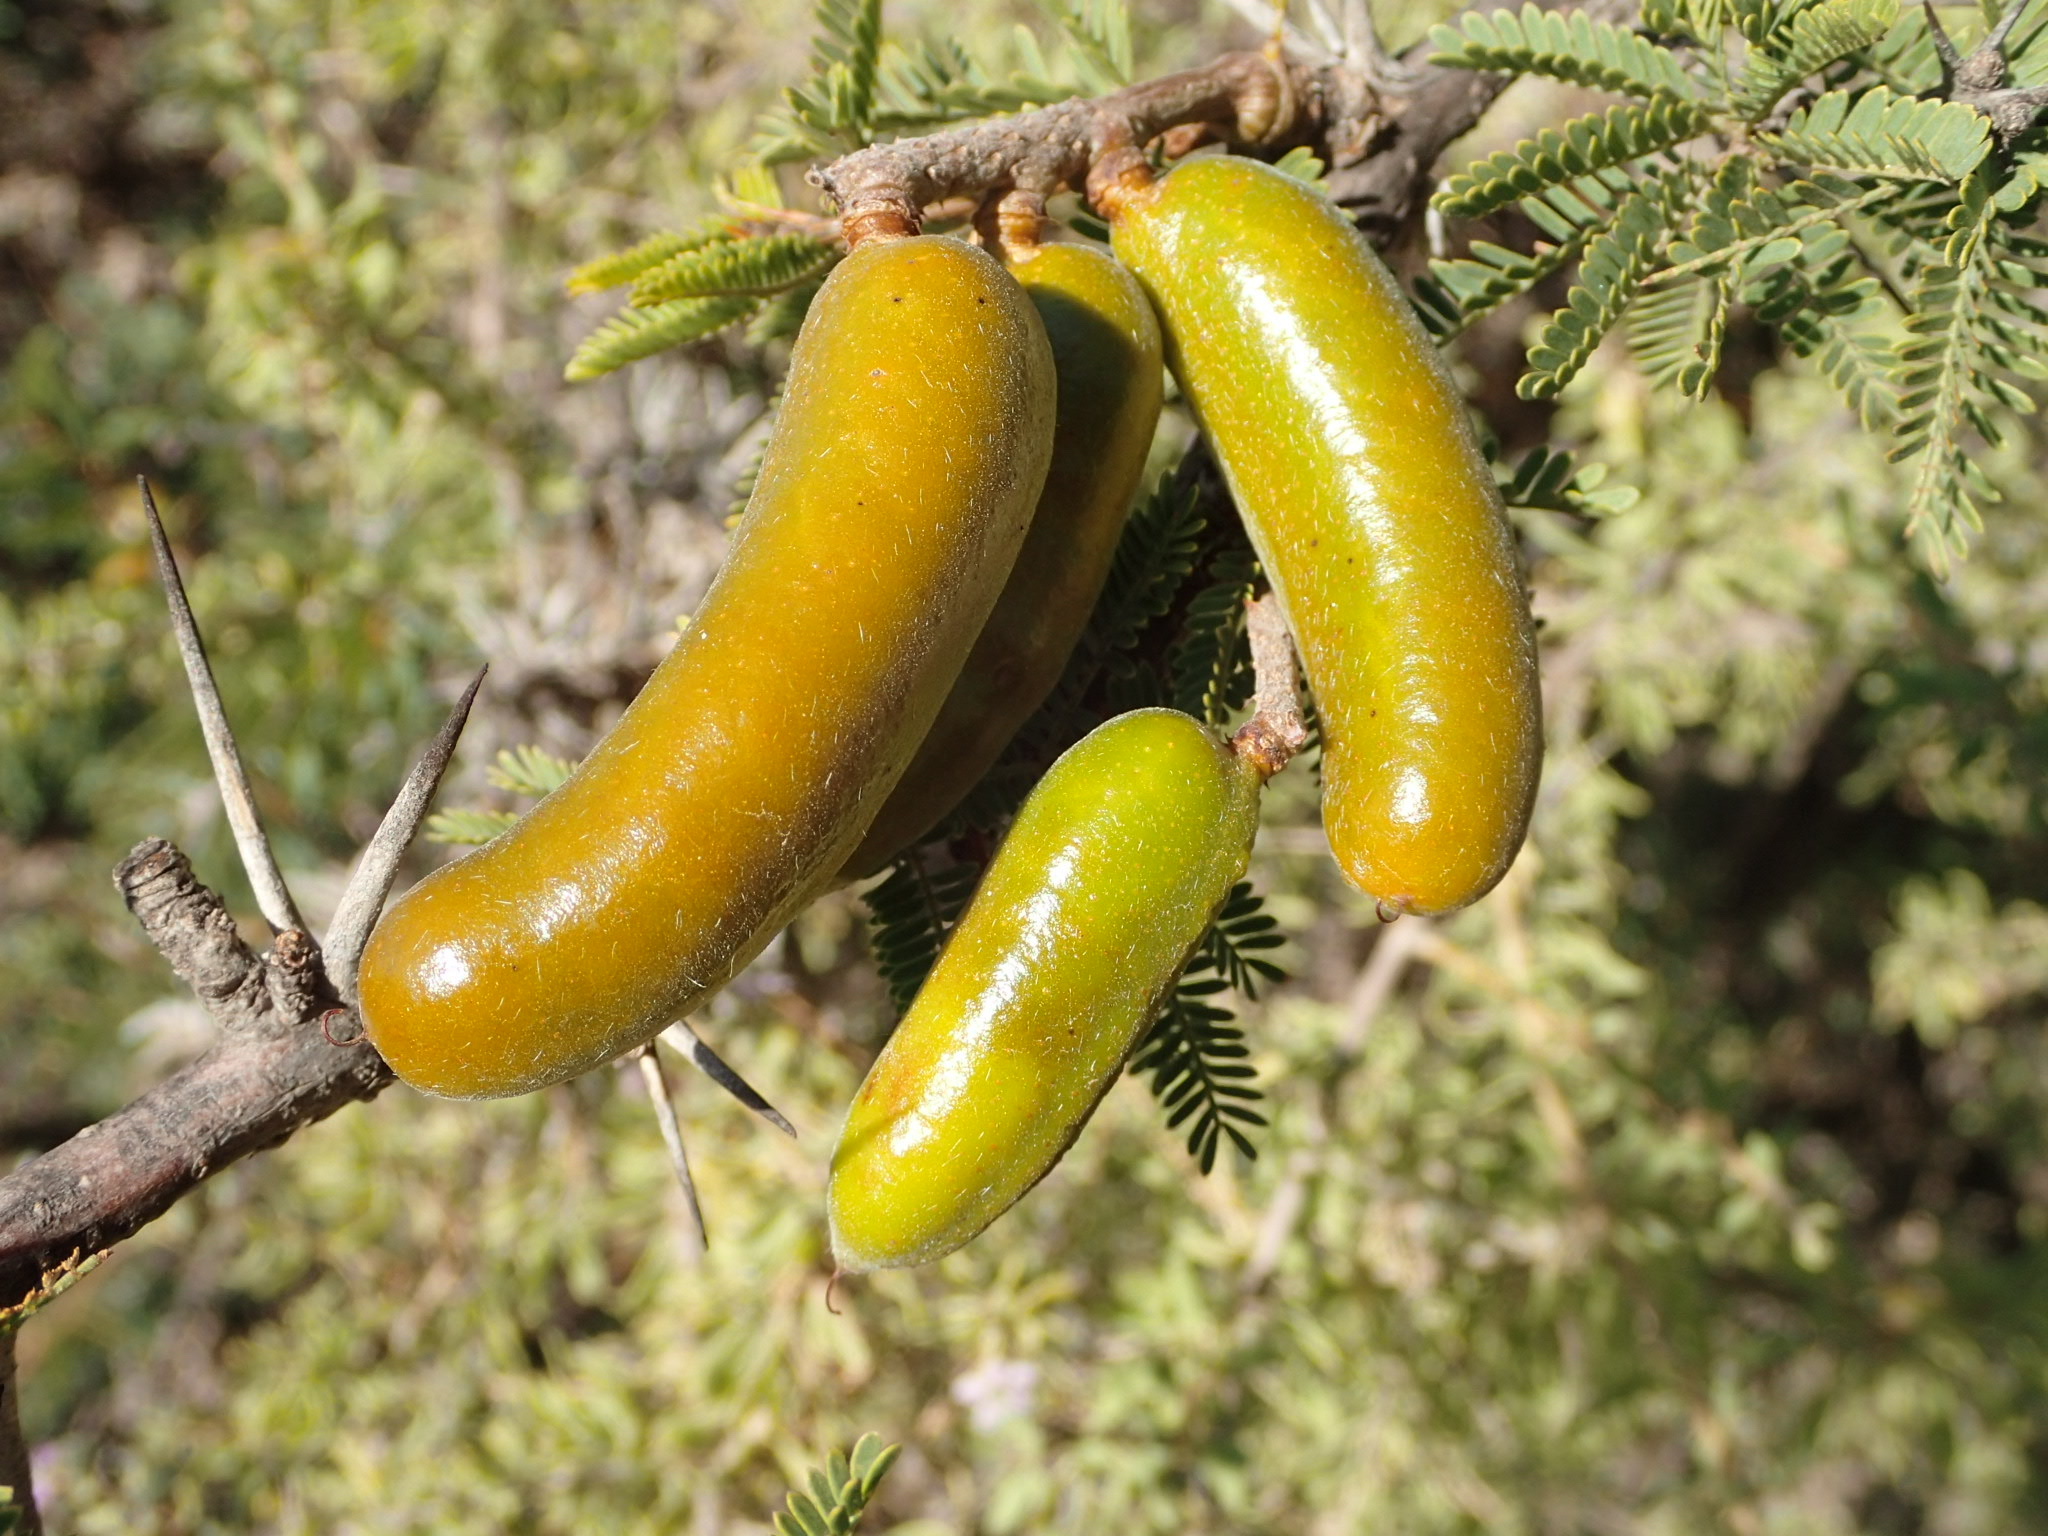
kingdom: Plantae
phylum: Tracheophyta
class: Magnoliopsida
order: Fabales
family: Fabaceae
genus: Prosopis
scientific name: Prosopis ferox
